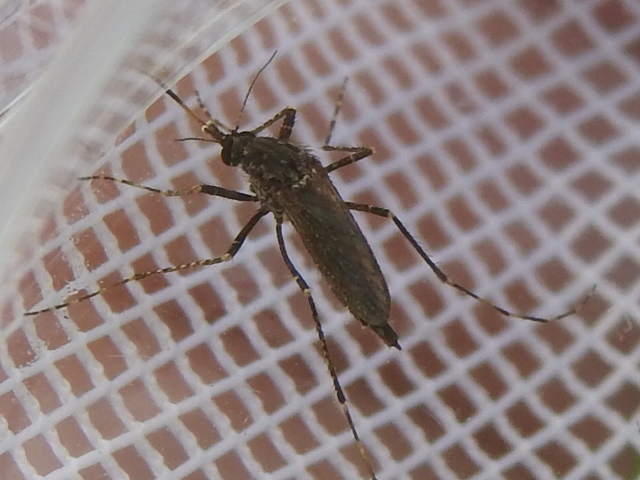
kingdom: Animalia
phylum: Arthropoda
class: Insecta
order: Diptera
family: Culicidae
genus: Psorophora
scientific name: Psorophora columbiae
